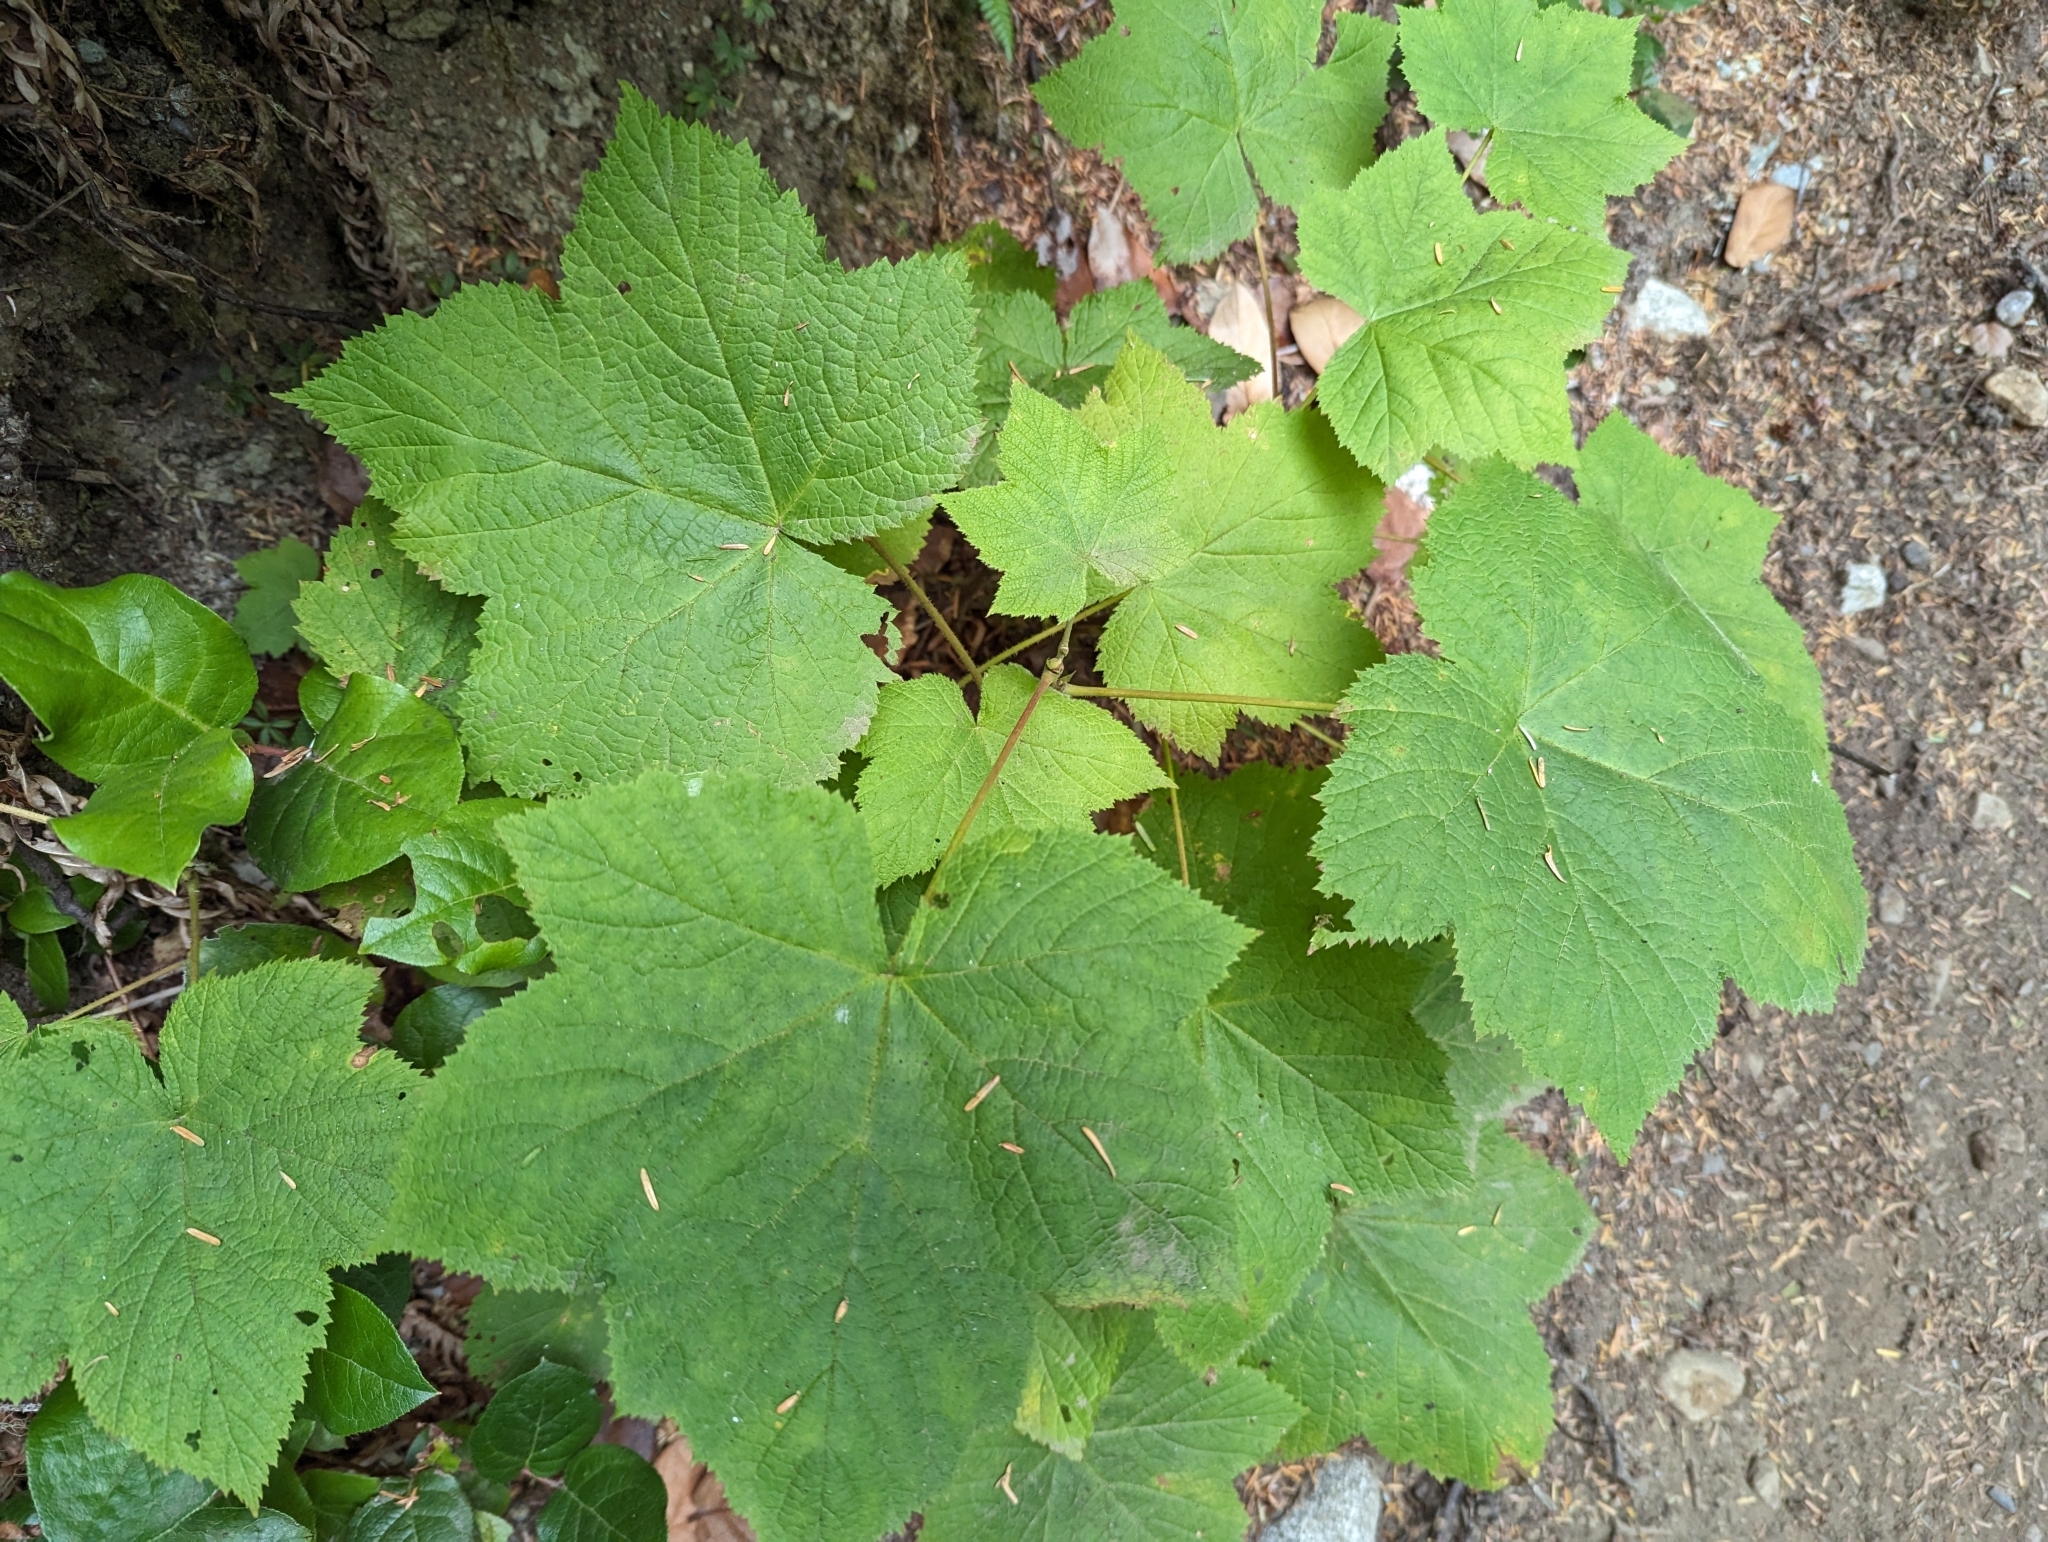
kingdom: Plantae
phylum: Tracheophyta
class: Magnoliopsida
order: Rosales
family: Rosaceae
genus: Rubus
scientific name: Rubus parviflorus
